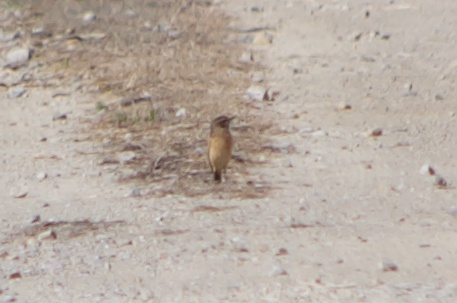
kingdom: Animalia
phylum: Chordata
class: Aves
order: Passeriformes
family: Muscicapidae
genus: Saxicola
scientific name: Saxicola rubicola
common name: European stonechat
